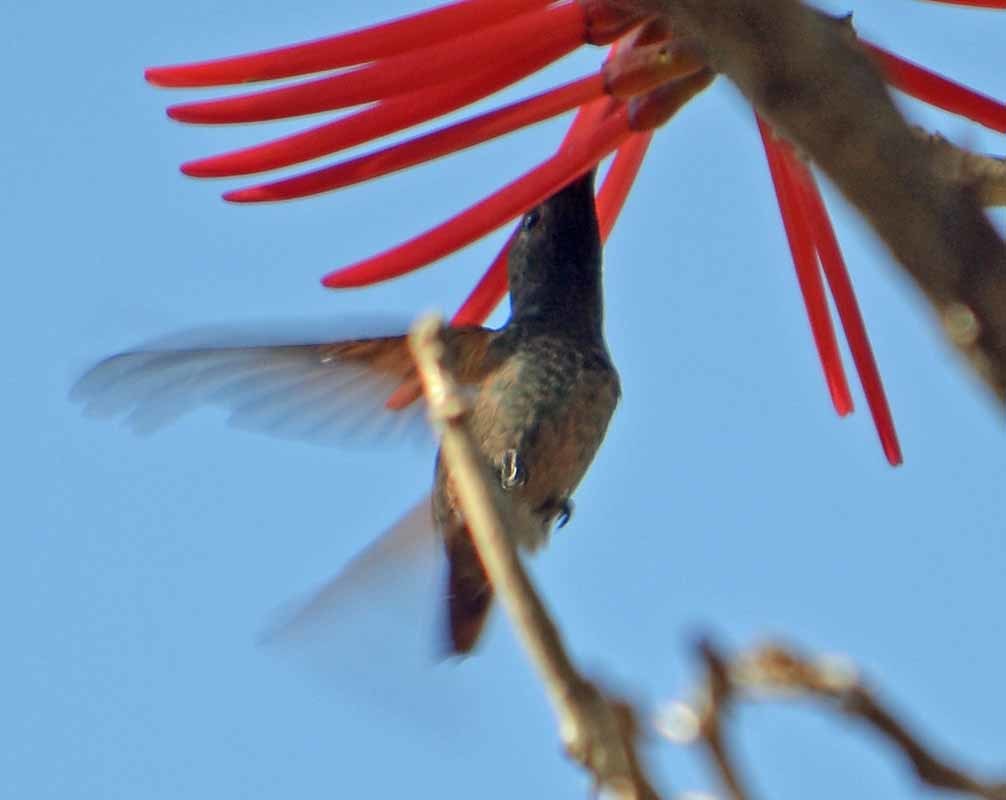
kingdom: Animalia
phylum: Chordata
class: Aves
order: Apodiformes
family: Trochilidae
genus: Saucerottia
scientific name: Saucerottia beryllina
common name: Berylline hummingbird
